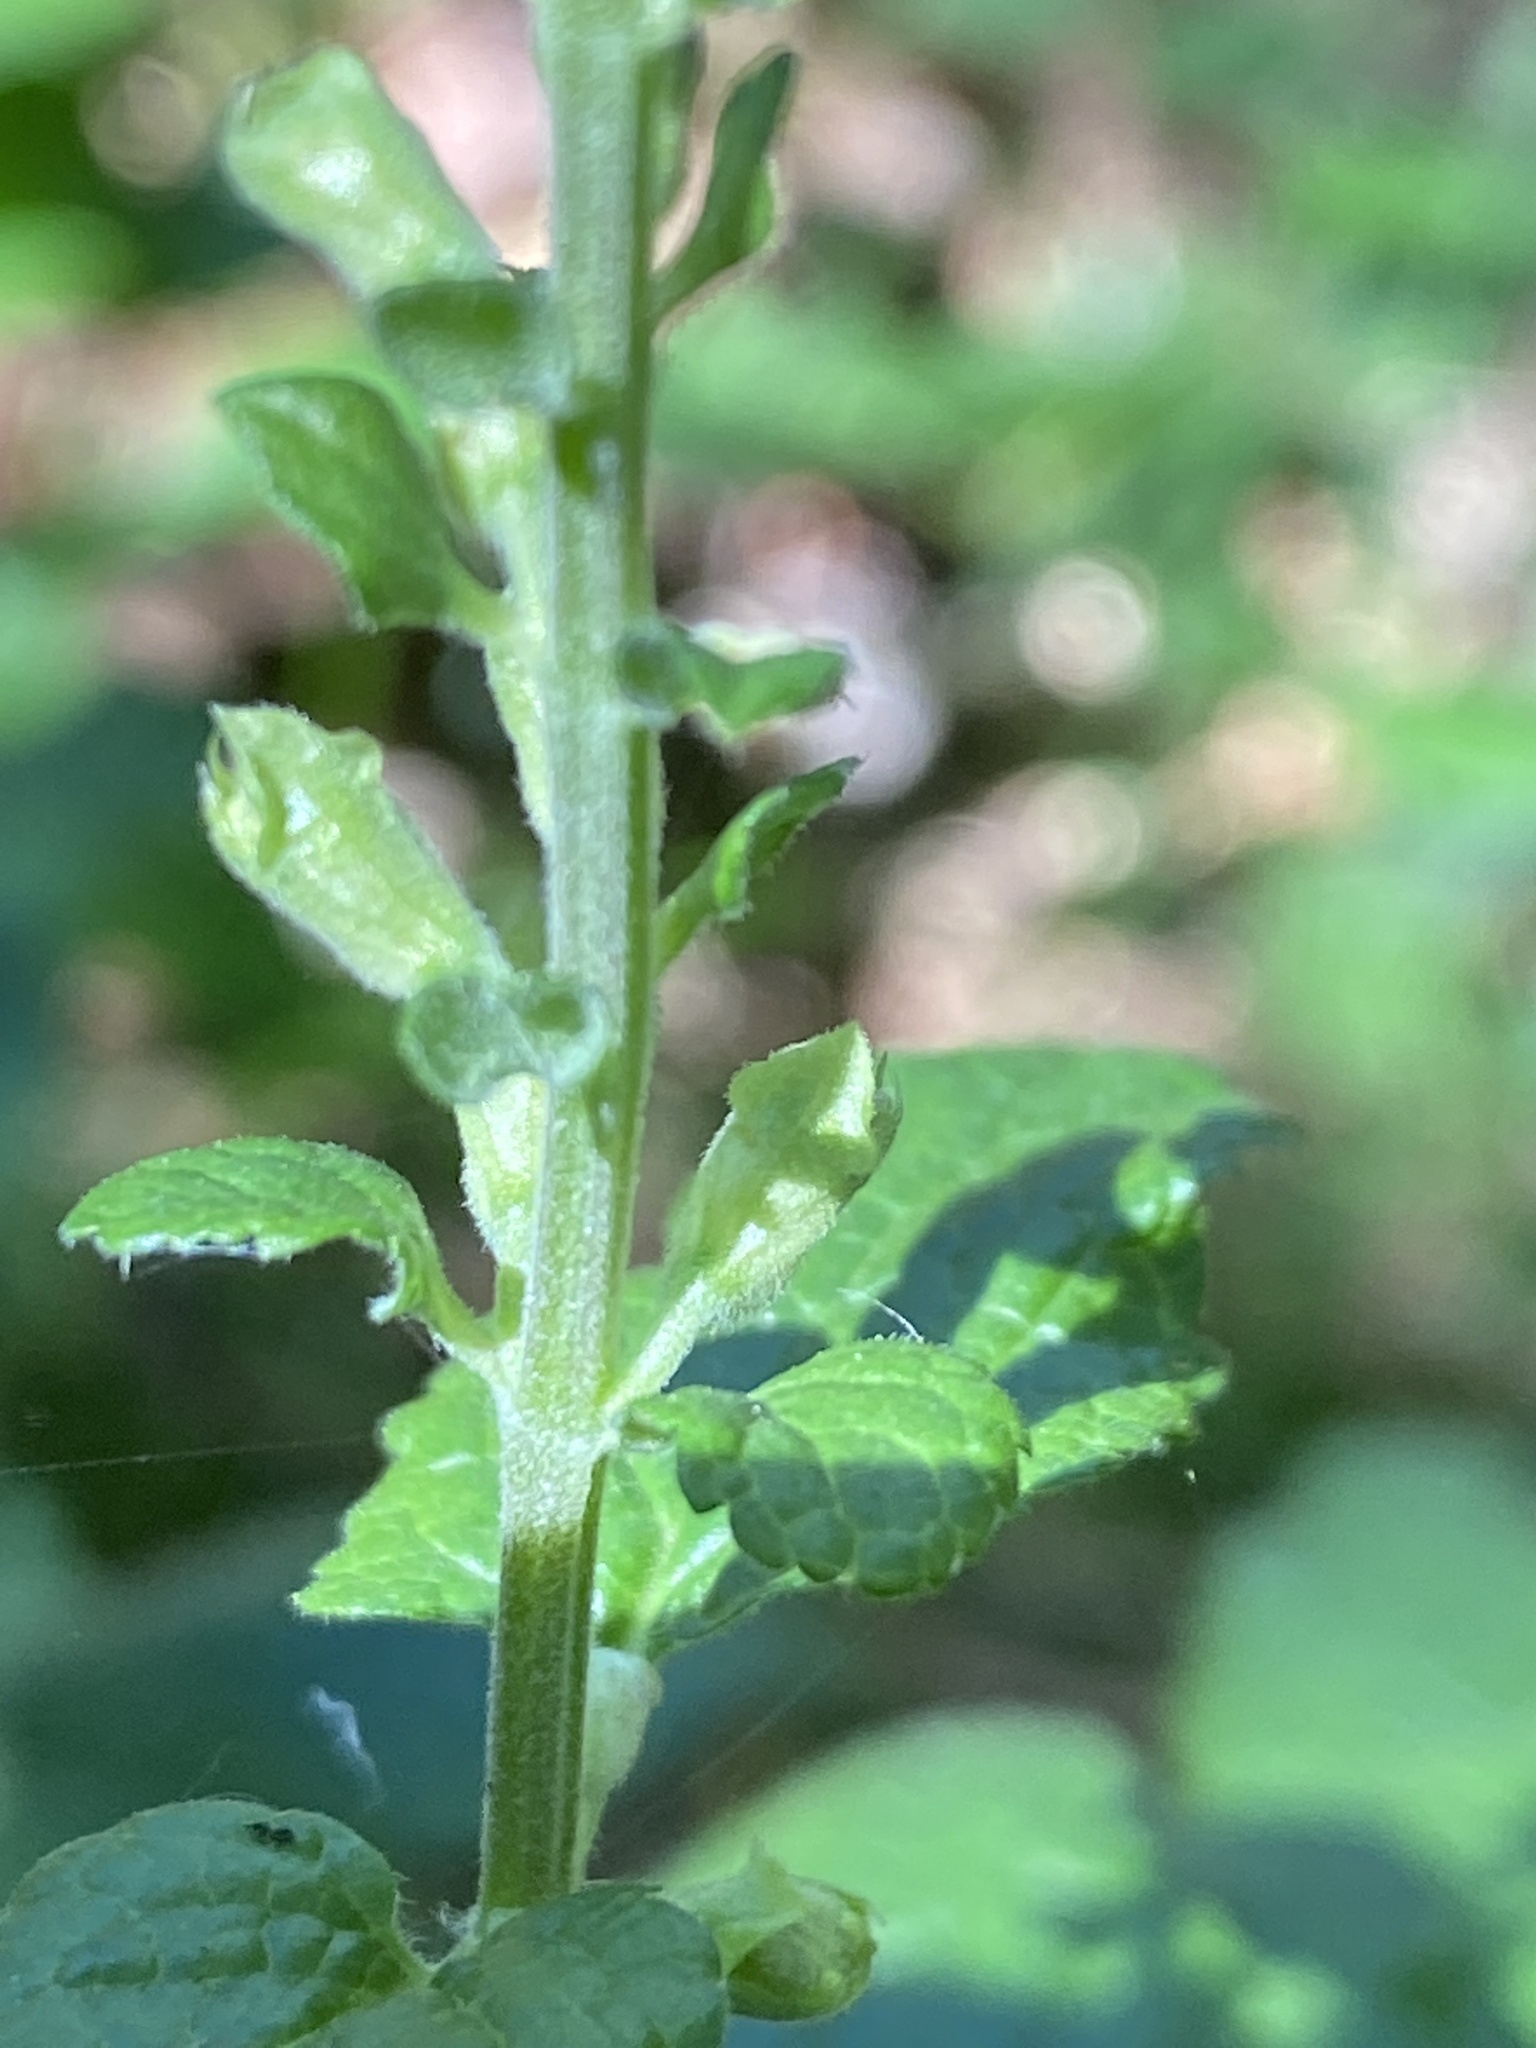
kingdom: Plantae
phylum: Tracheophyta
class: Magnoliopsida
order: Lamiales
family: Lamiaceae
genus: Teucrium
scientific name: Teucrium scorodonia
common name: Woodland germander
